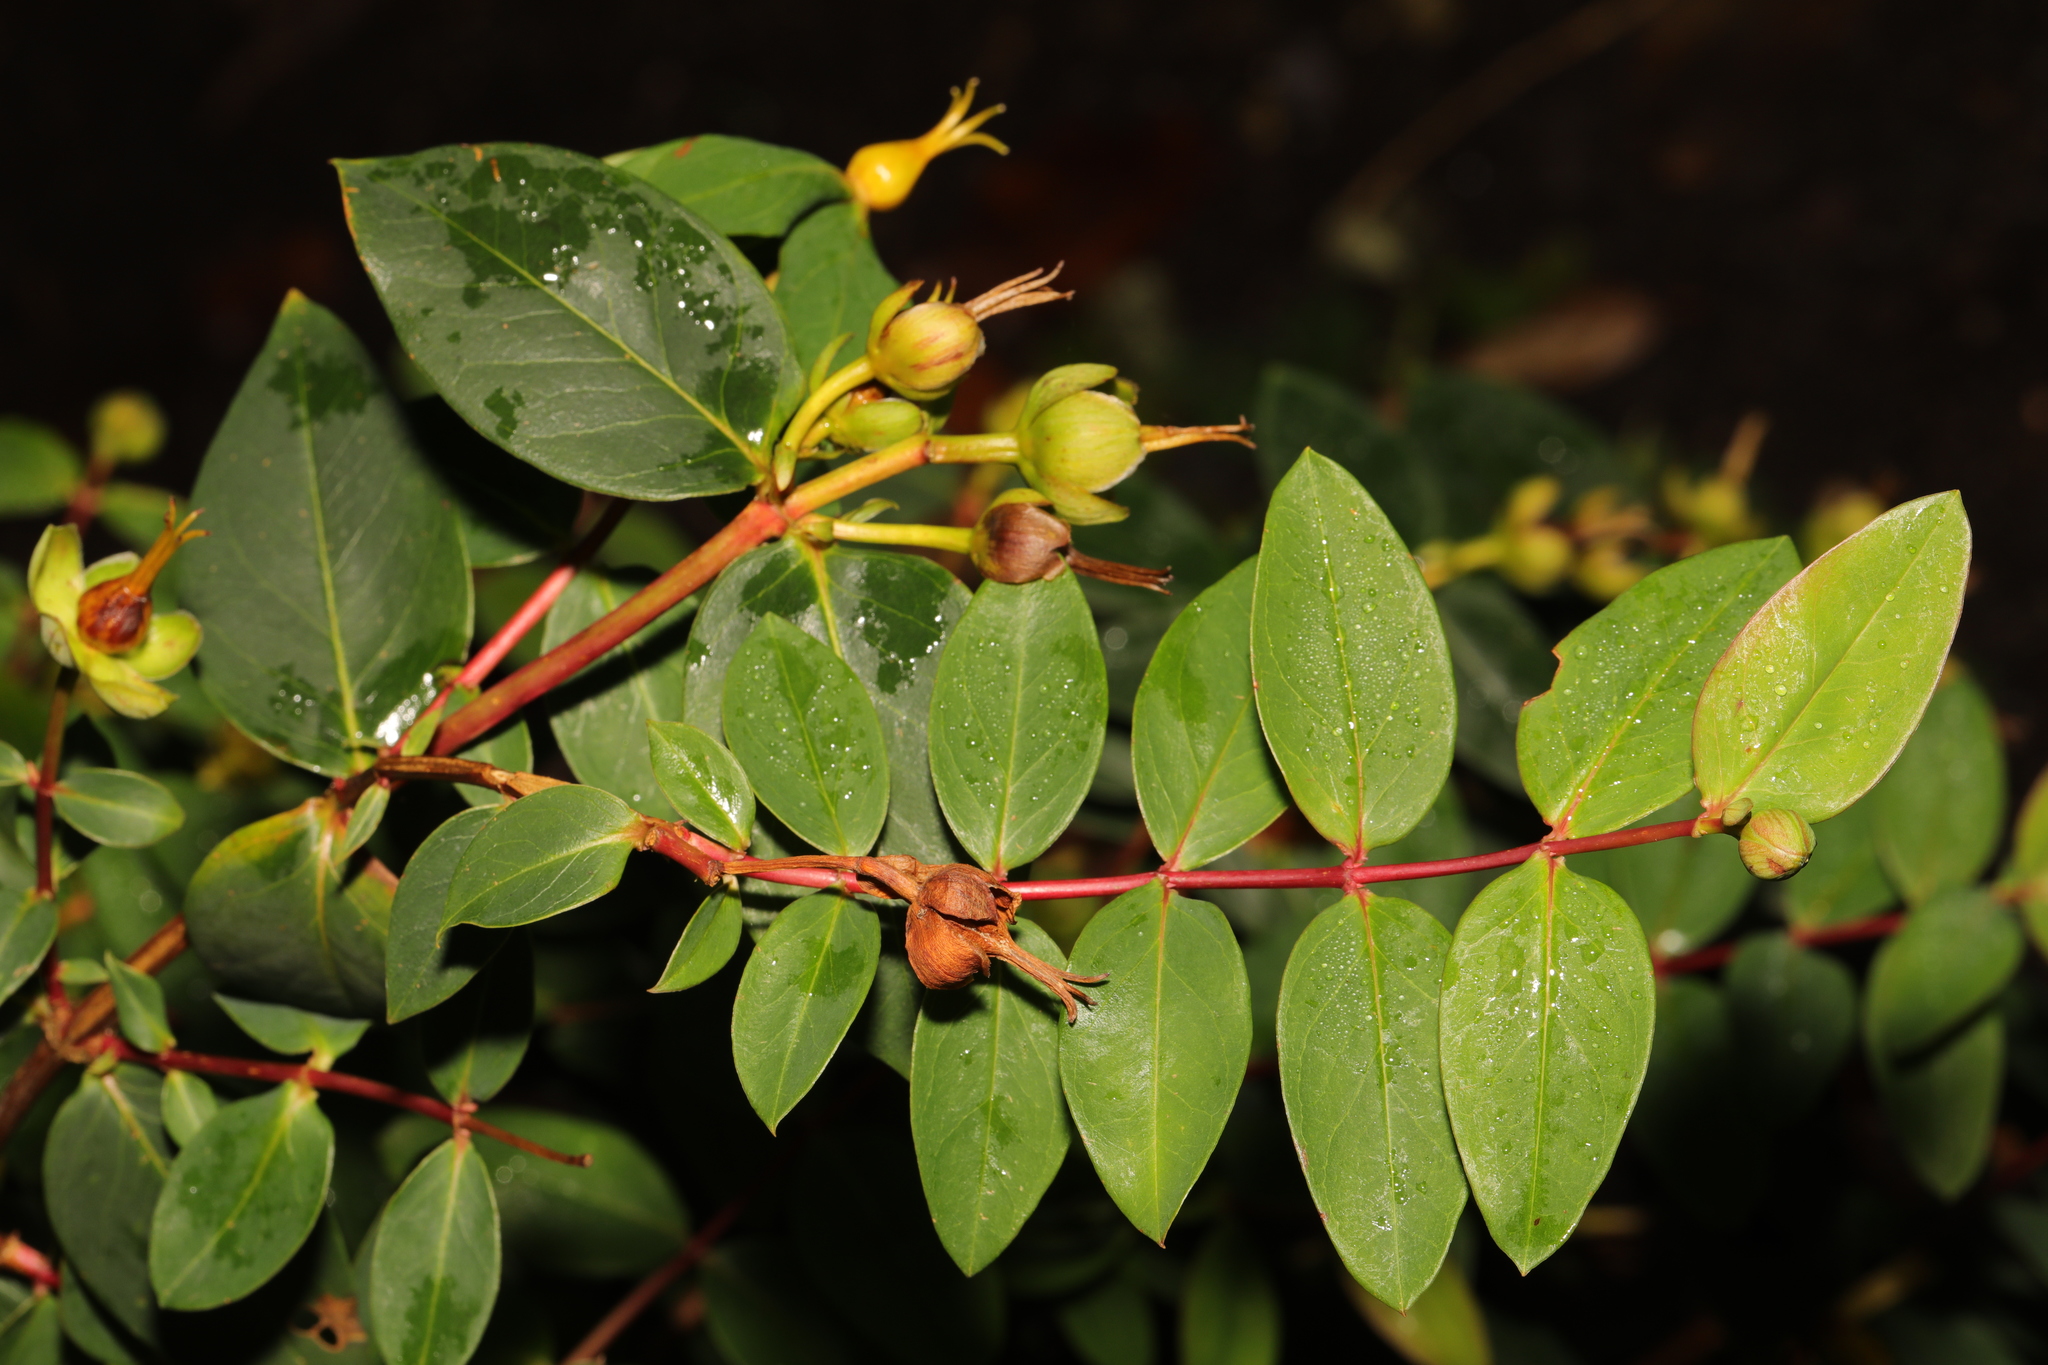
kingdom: Plantae
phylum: Tracheophyta
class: Magnoliopsida
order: Malpighiales
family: Hypericaceae
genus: Hypericum
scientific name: Hypericum androsaemum
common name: Sweet-amber
